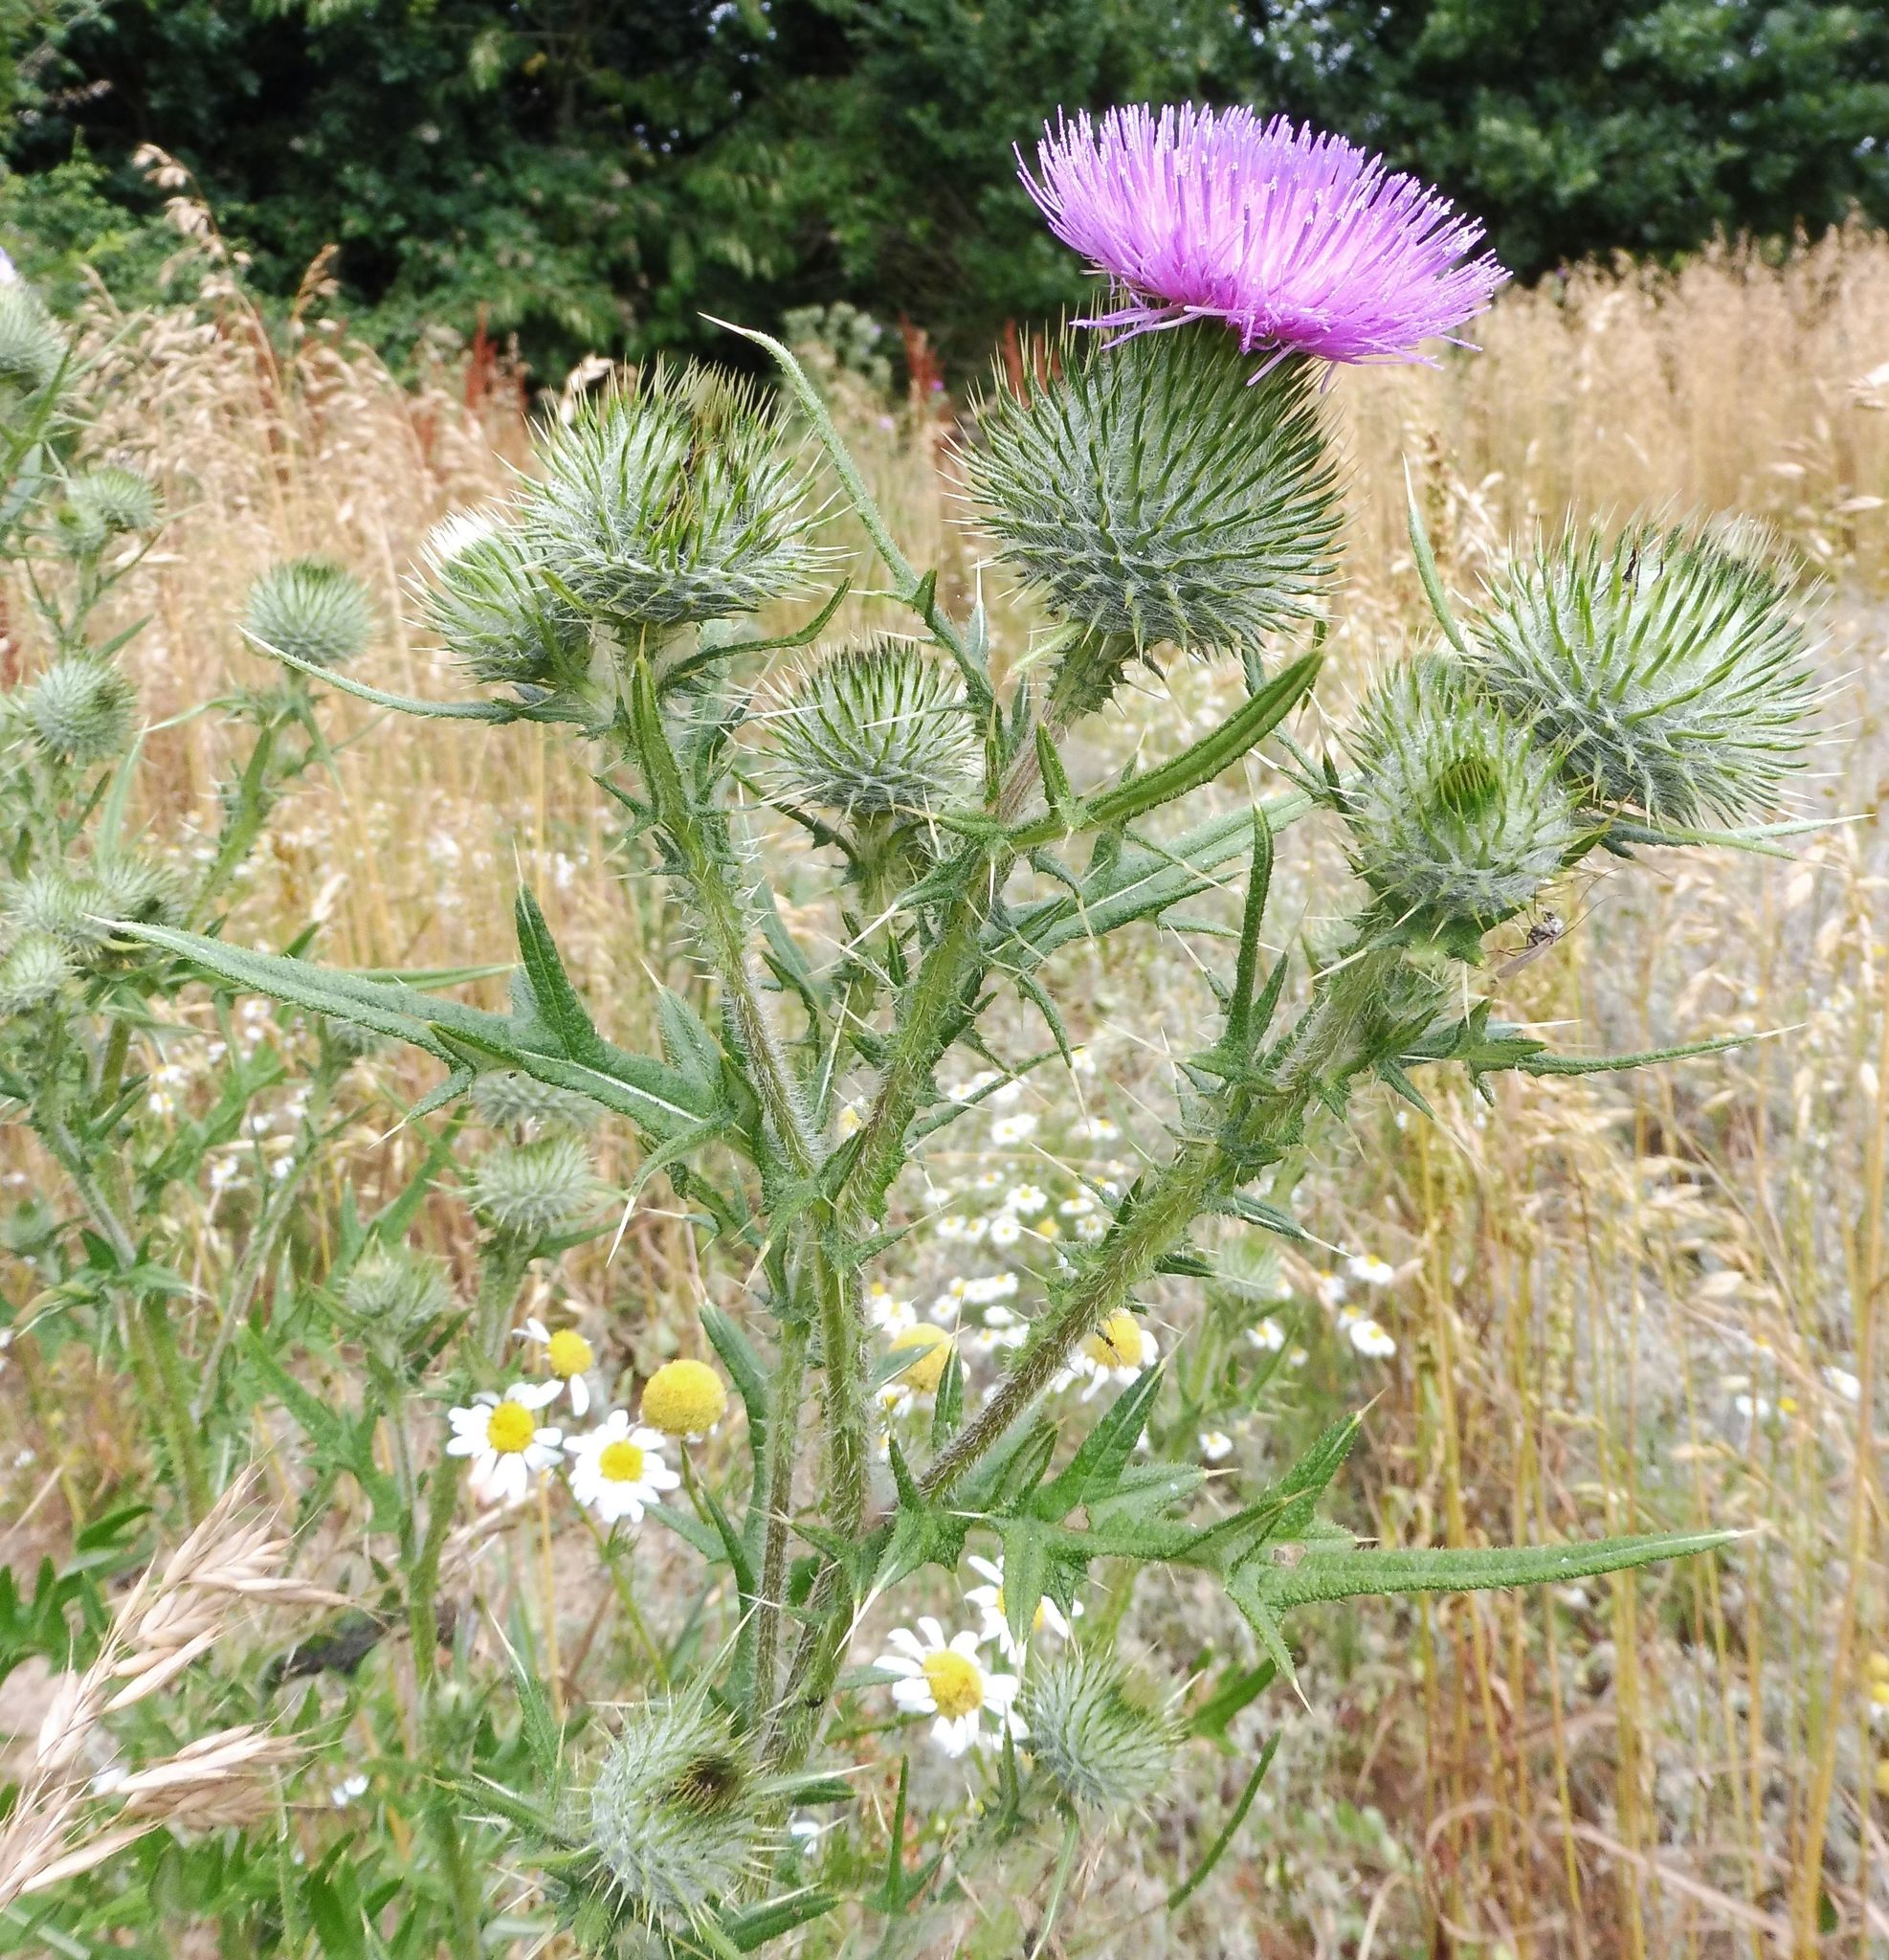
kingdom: Plantae
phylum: Tracheophyta
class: Magnoliopsida
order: Asterales
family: Asteraceae
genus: Cirsium
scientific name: Cirsium vulgare
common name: Bull thistle
